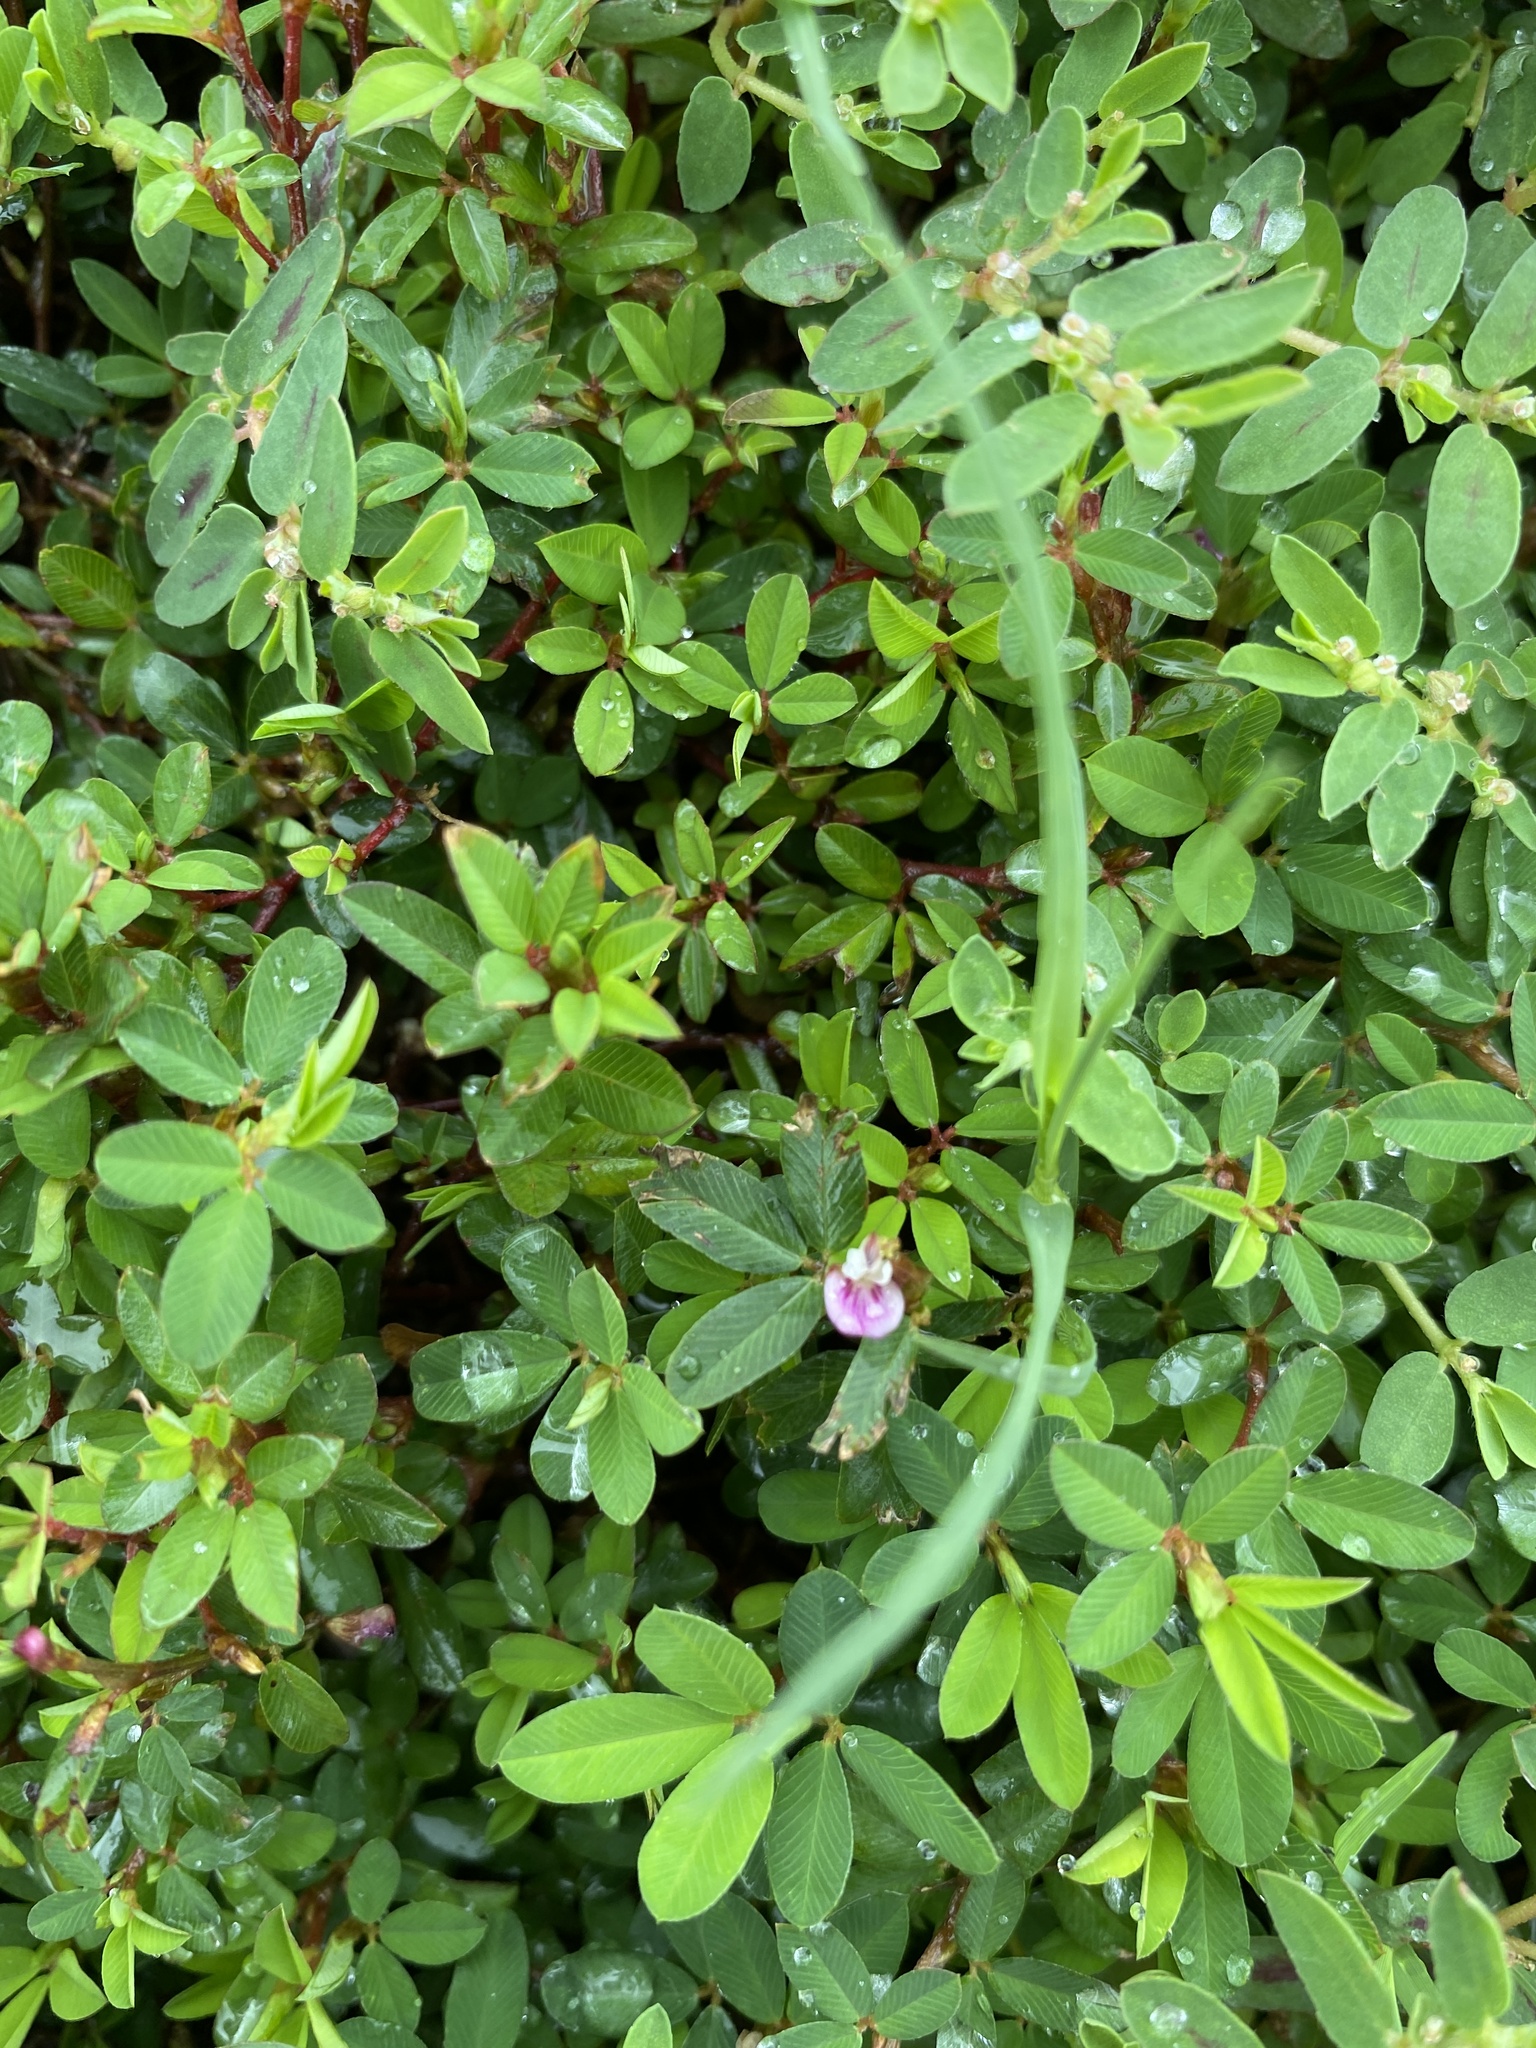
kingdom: Plantae
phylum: Tracheophyta
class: Magnoliopsida
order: Fabales
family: Fabaceae
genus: Kummerowia
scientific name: Kummerowia striata
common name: Japanese clover
